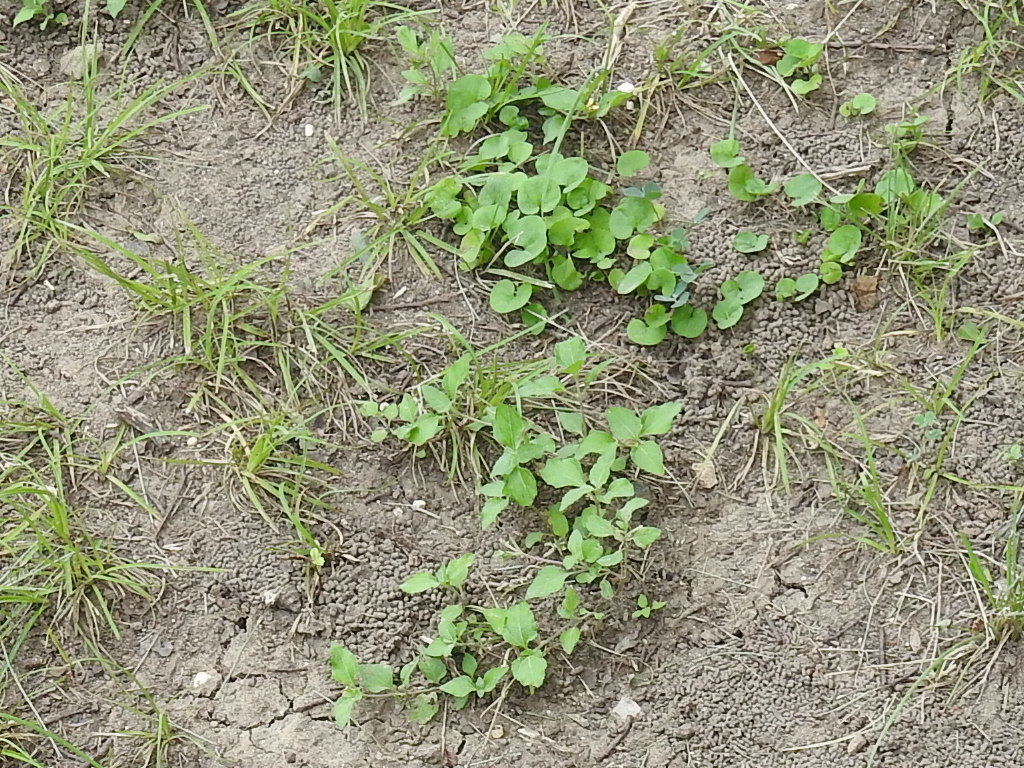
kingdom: Plantae
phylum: Tracheophyta
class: Magnoliopsida
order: Asterales
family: Asteraceae
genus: Calyptocarpus
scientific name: Calyptocarpus vialis
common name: Straggler daisy
